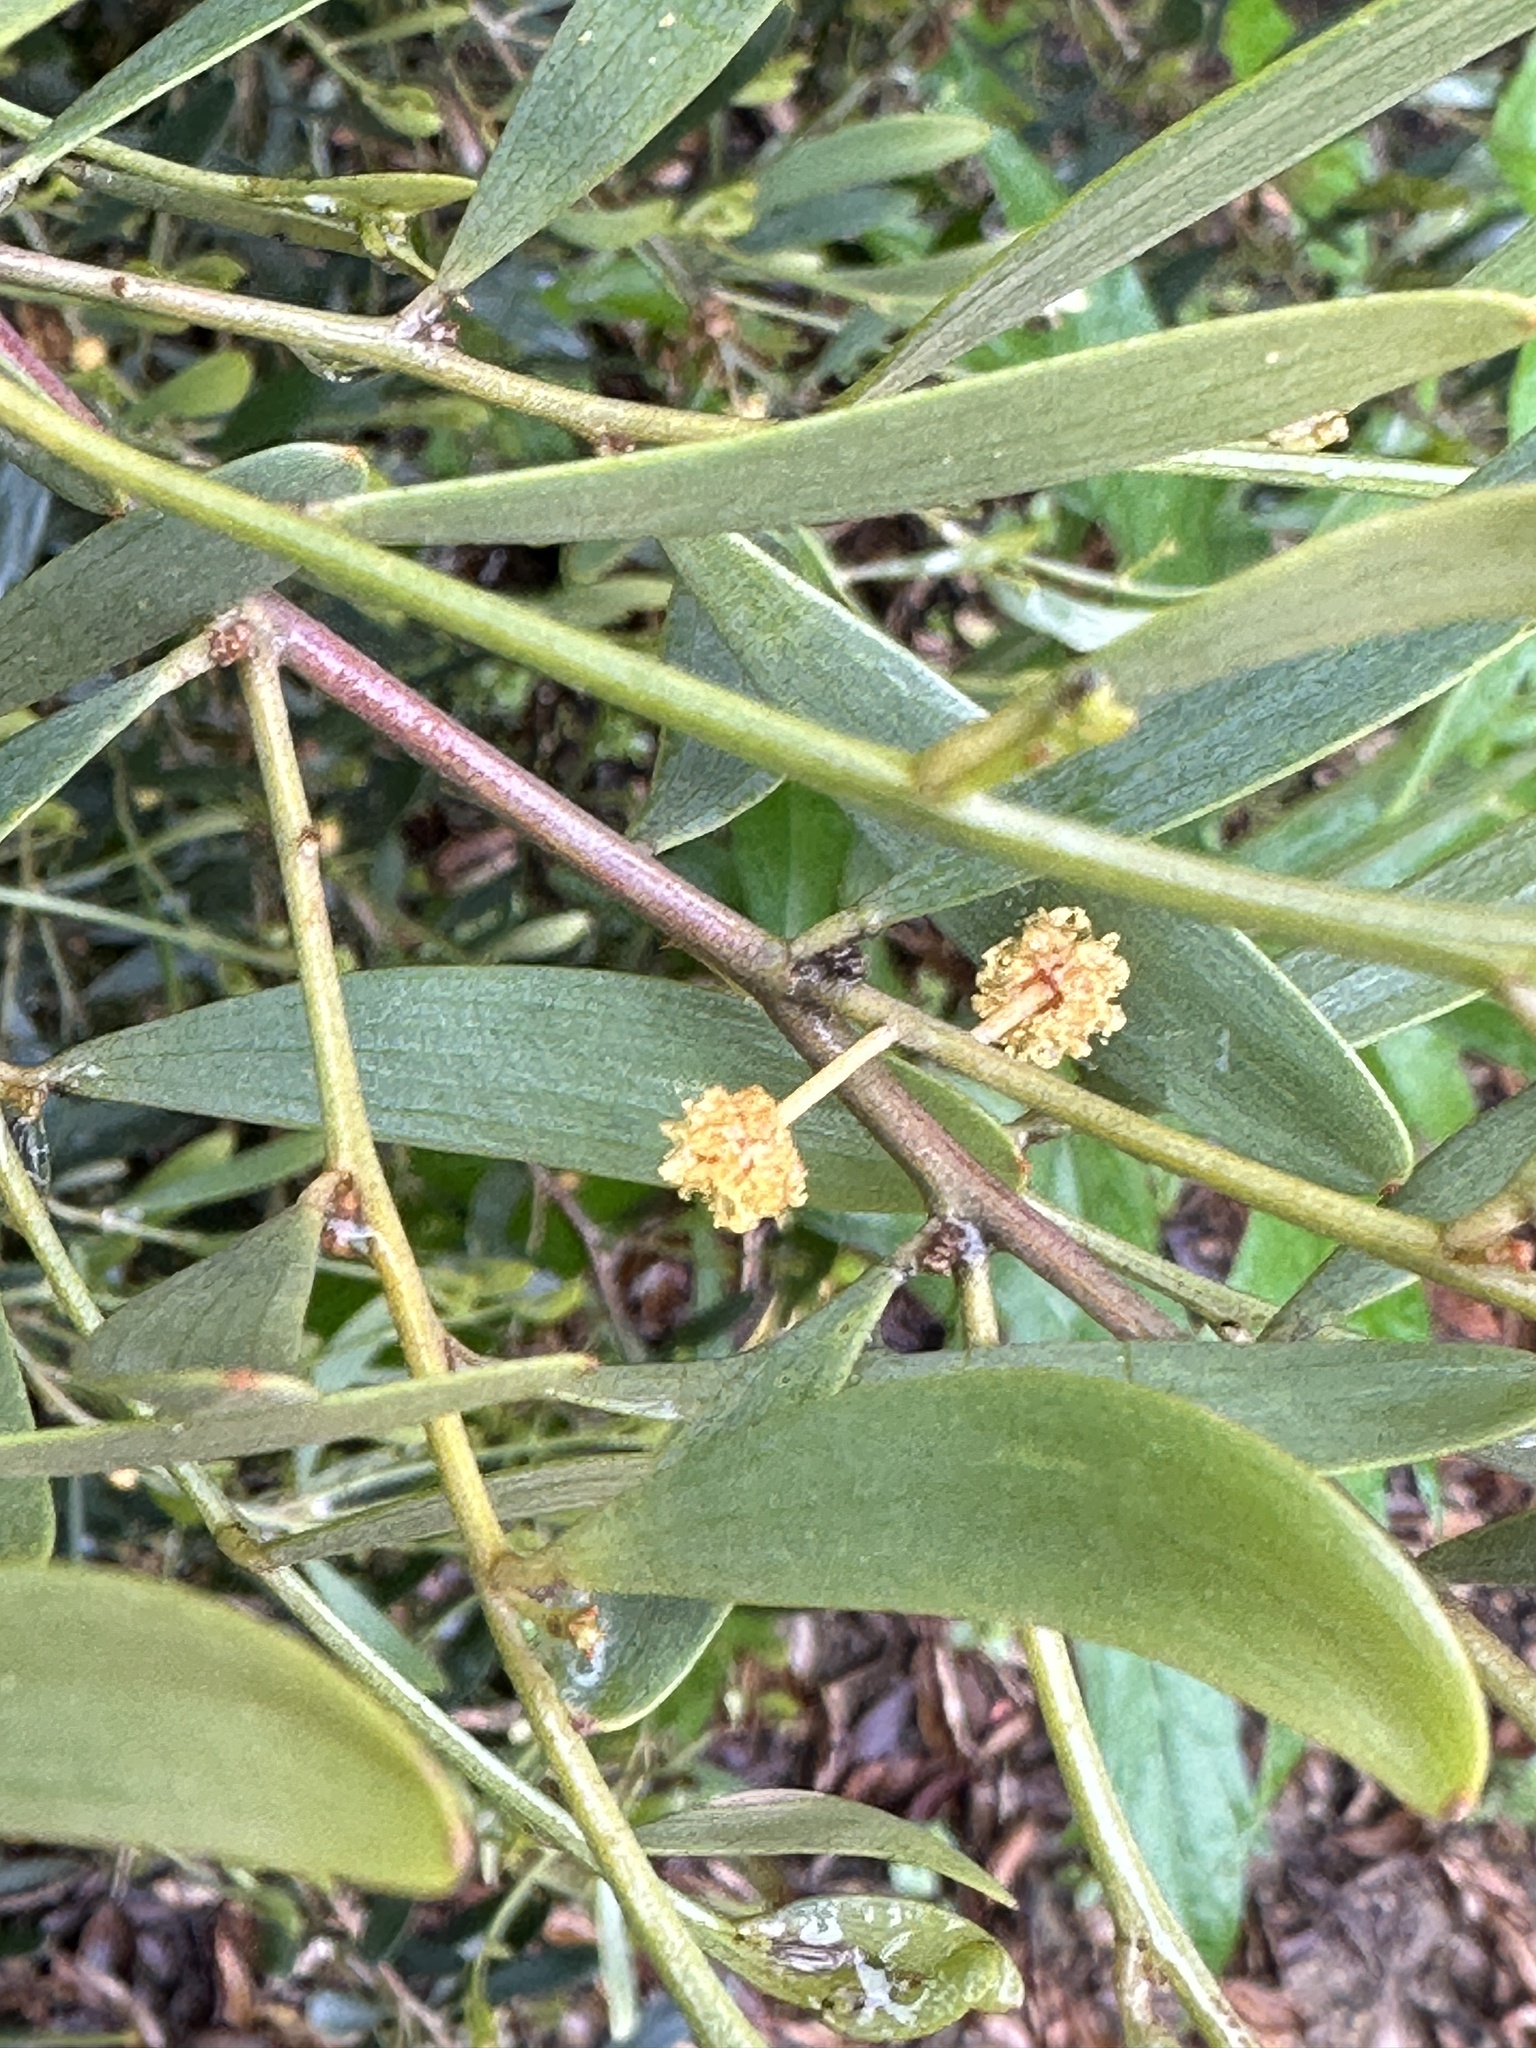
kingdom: Plantae
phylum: Tracheophyta
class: Magnoliopsida
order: Fabales
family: Fabaceae
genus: Acacia
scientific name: Acacia redolens
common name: Bank catclaw
